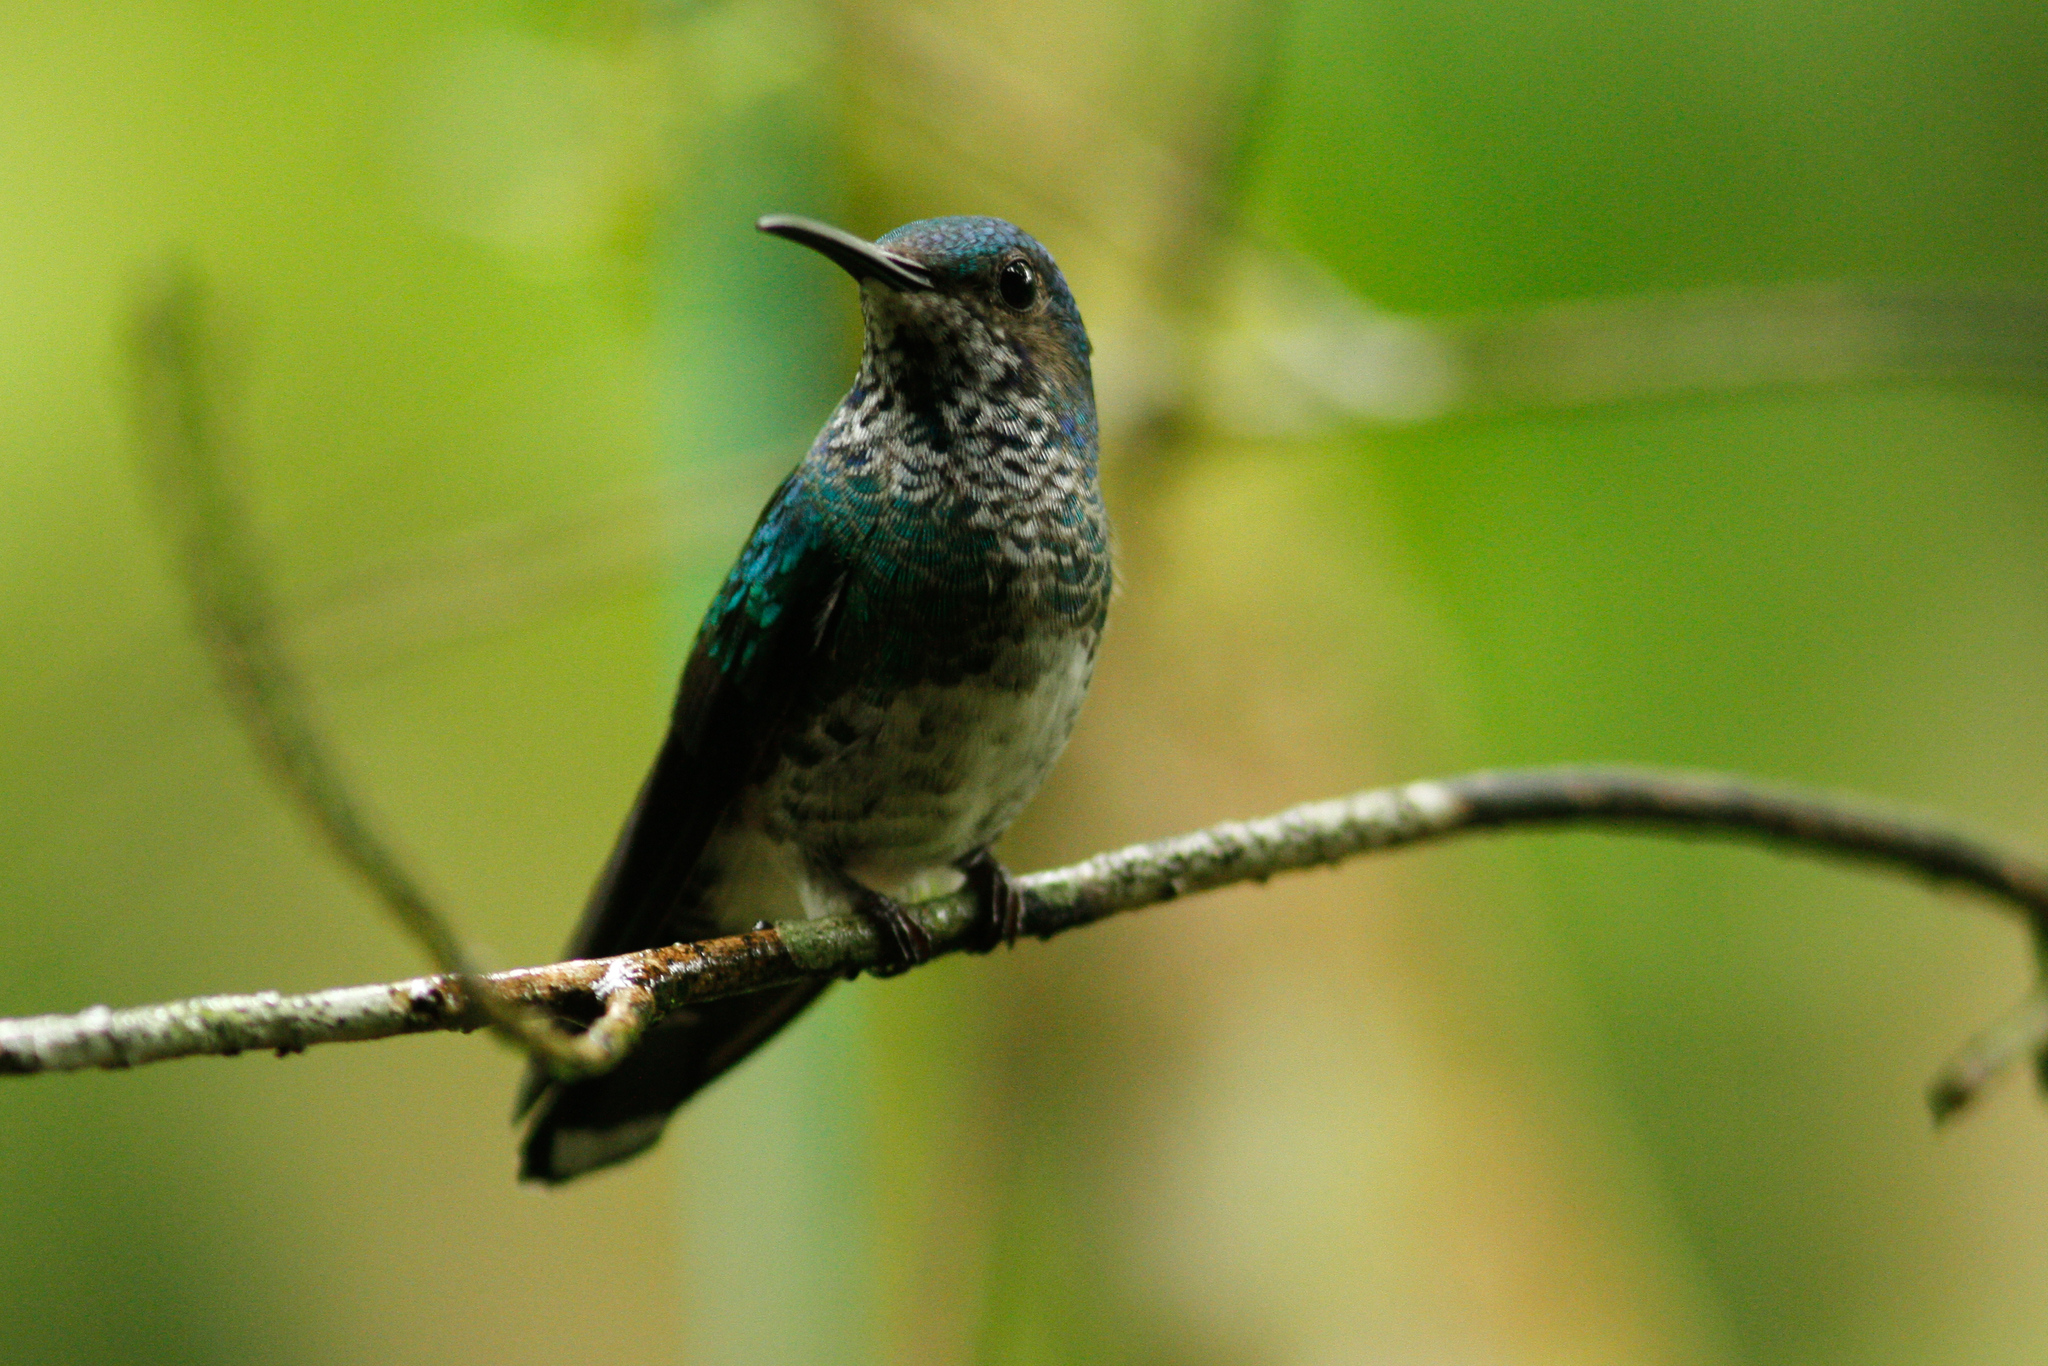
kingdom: Animalia
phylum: Chordata
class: Aves
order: Apodiformes
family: Trochilidae
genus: Florisuga
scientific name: Florisuga mellivora
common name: White-necked jacobin
